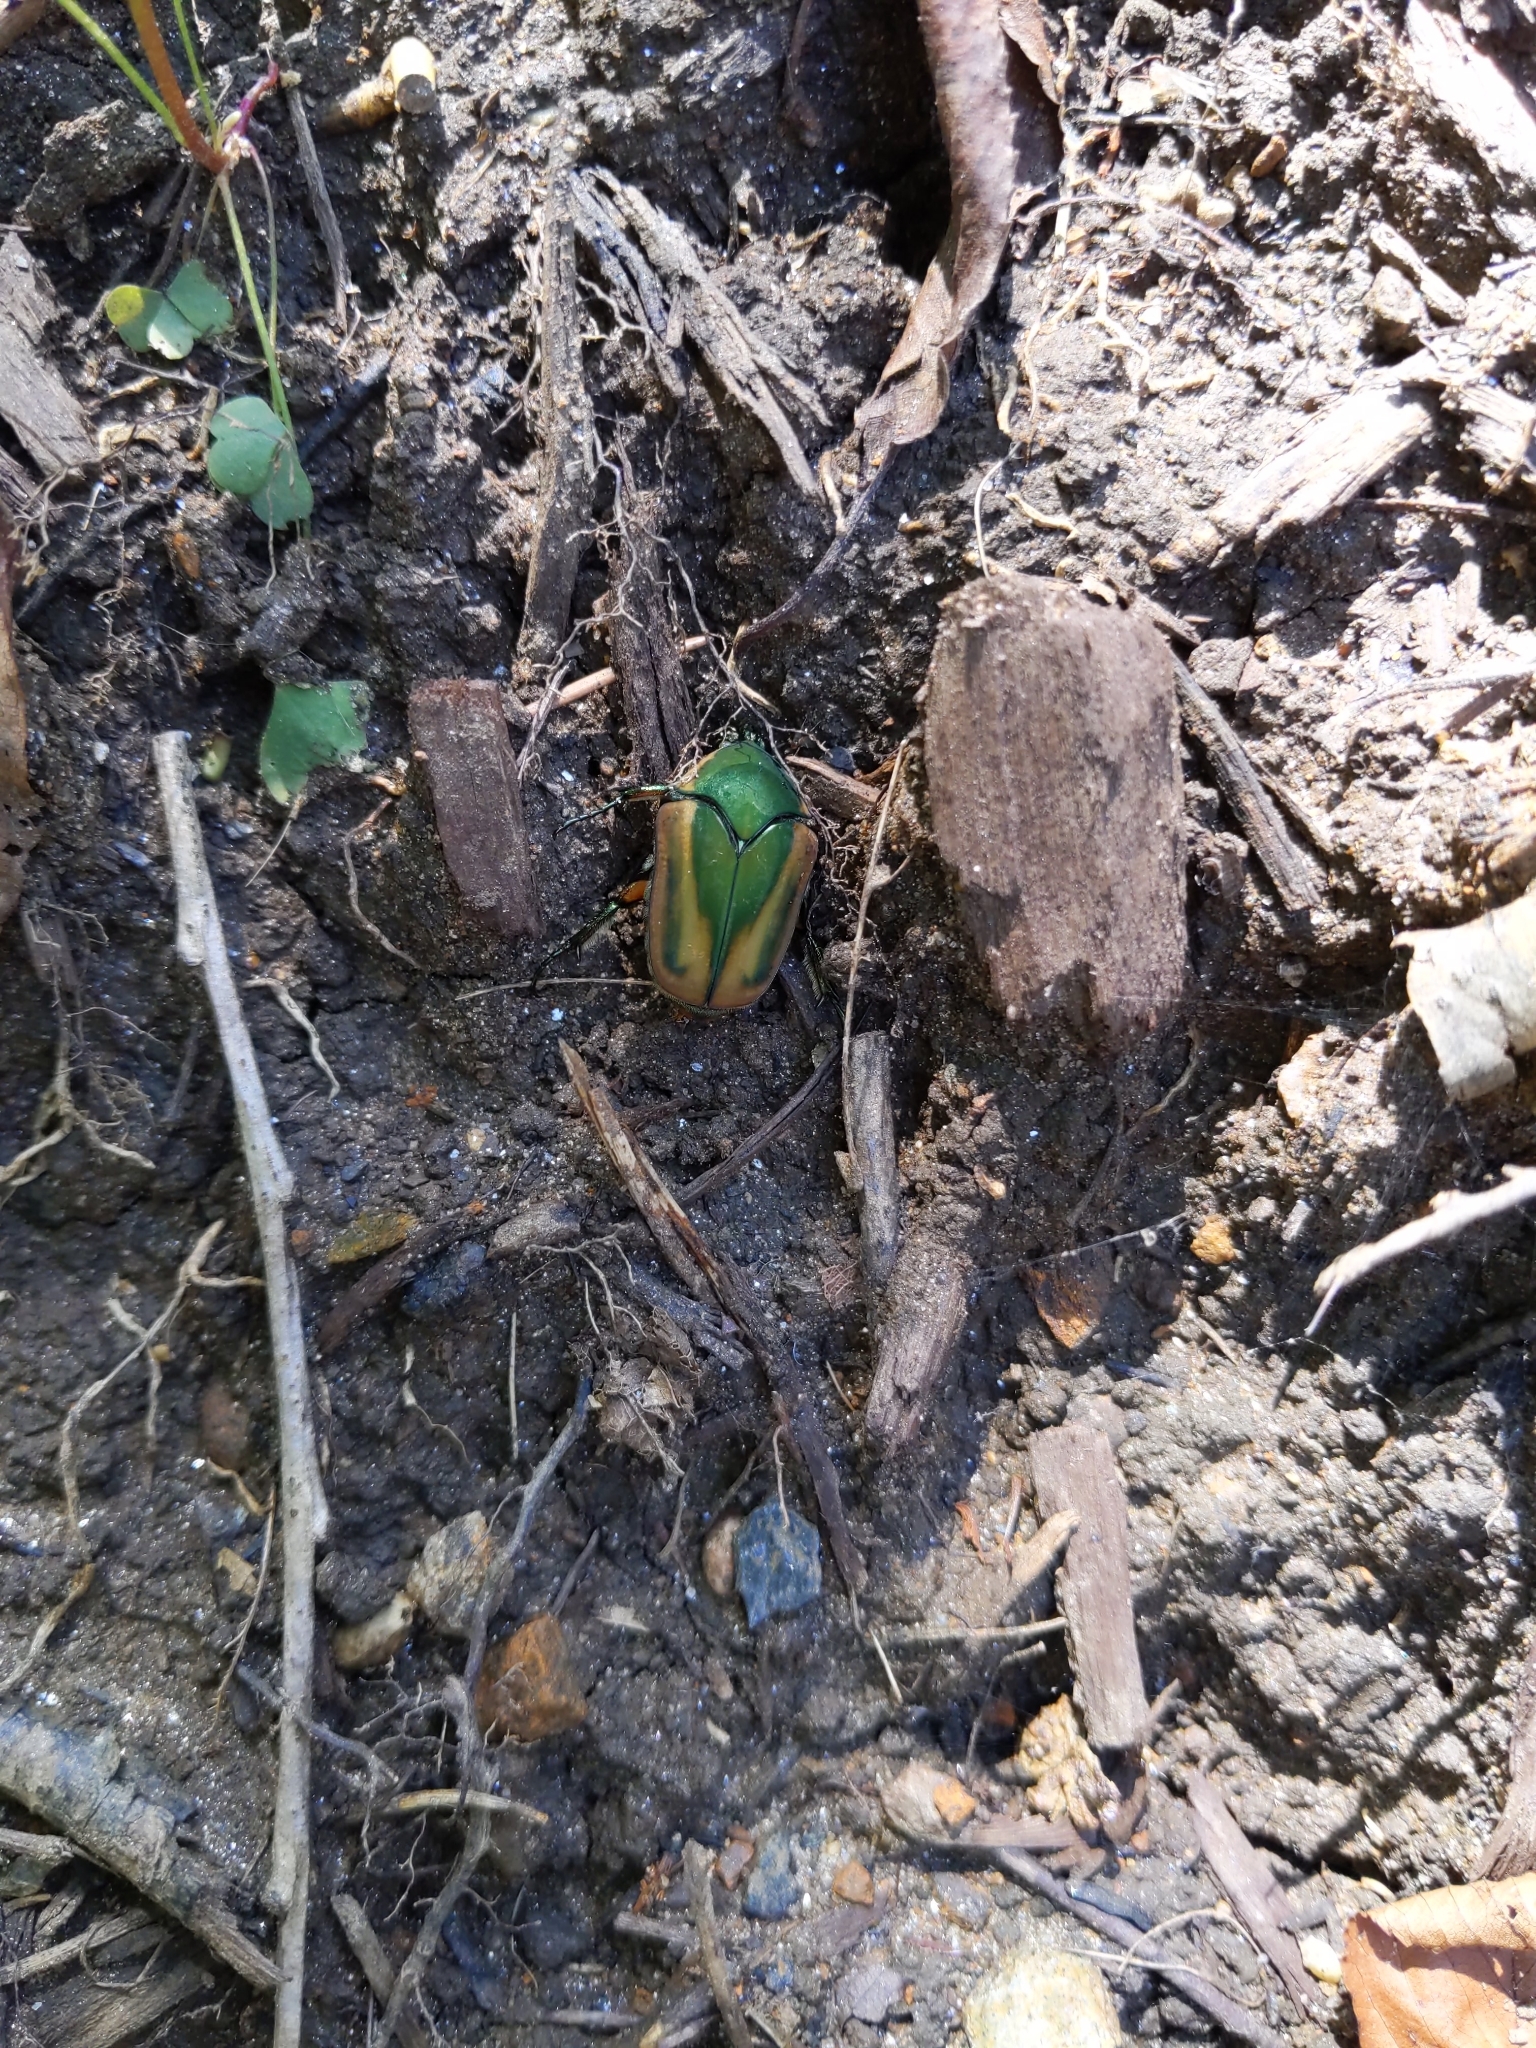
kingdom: Animalia
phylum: Arthropoda
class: Insecta
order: Coleoptera
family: Scarabaeidae
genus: Cotinis
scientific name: Cotinis nitida
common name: Common green june beetle
